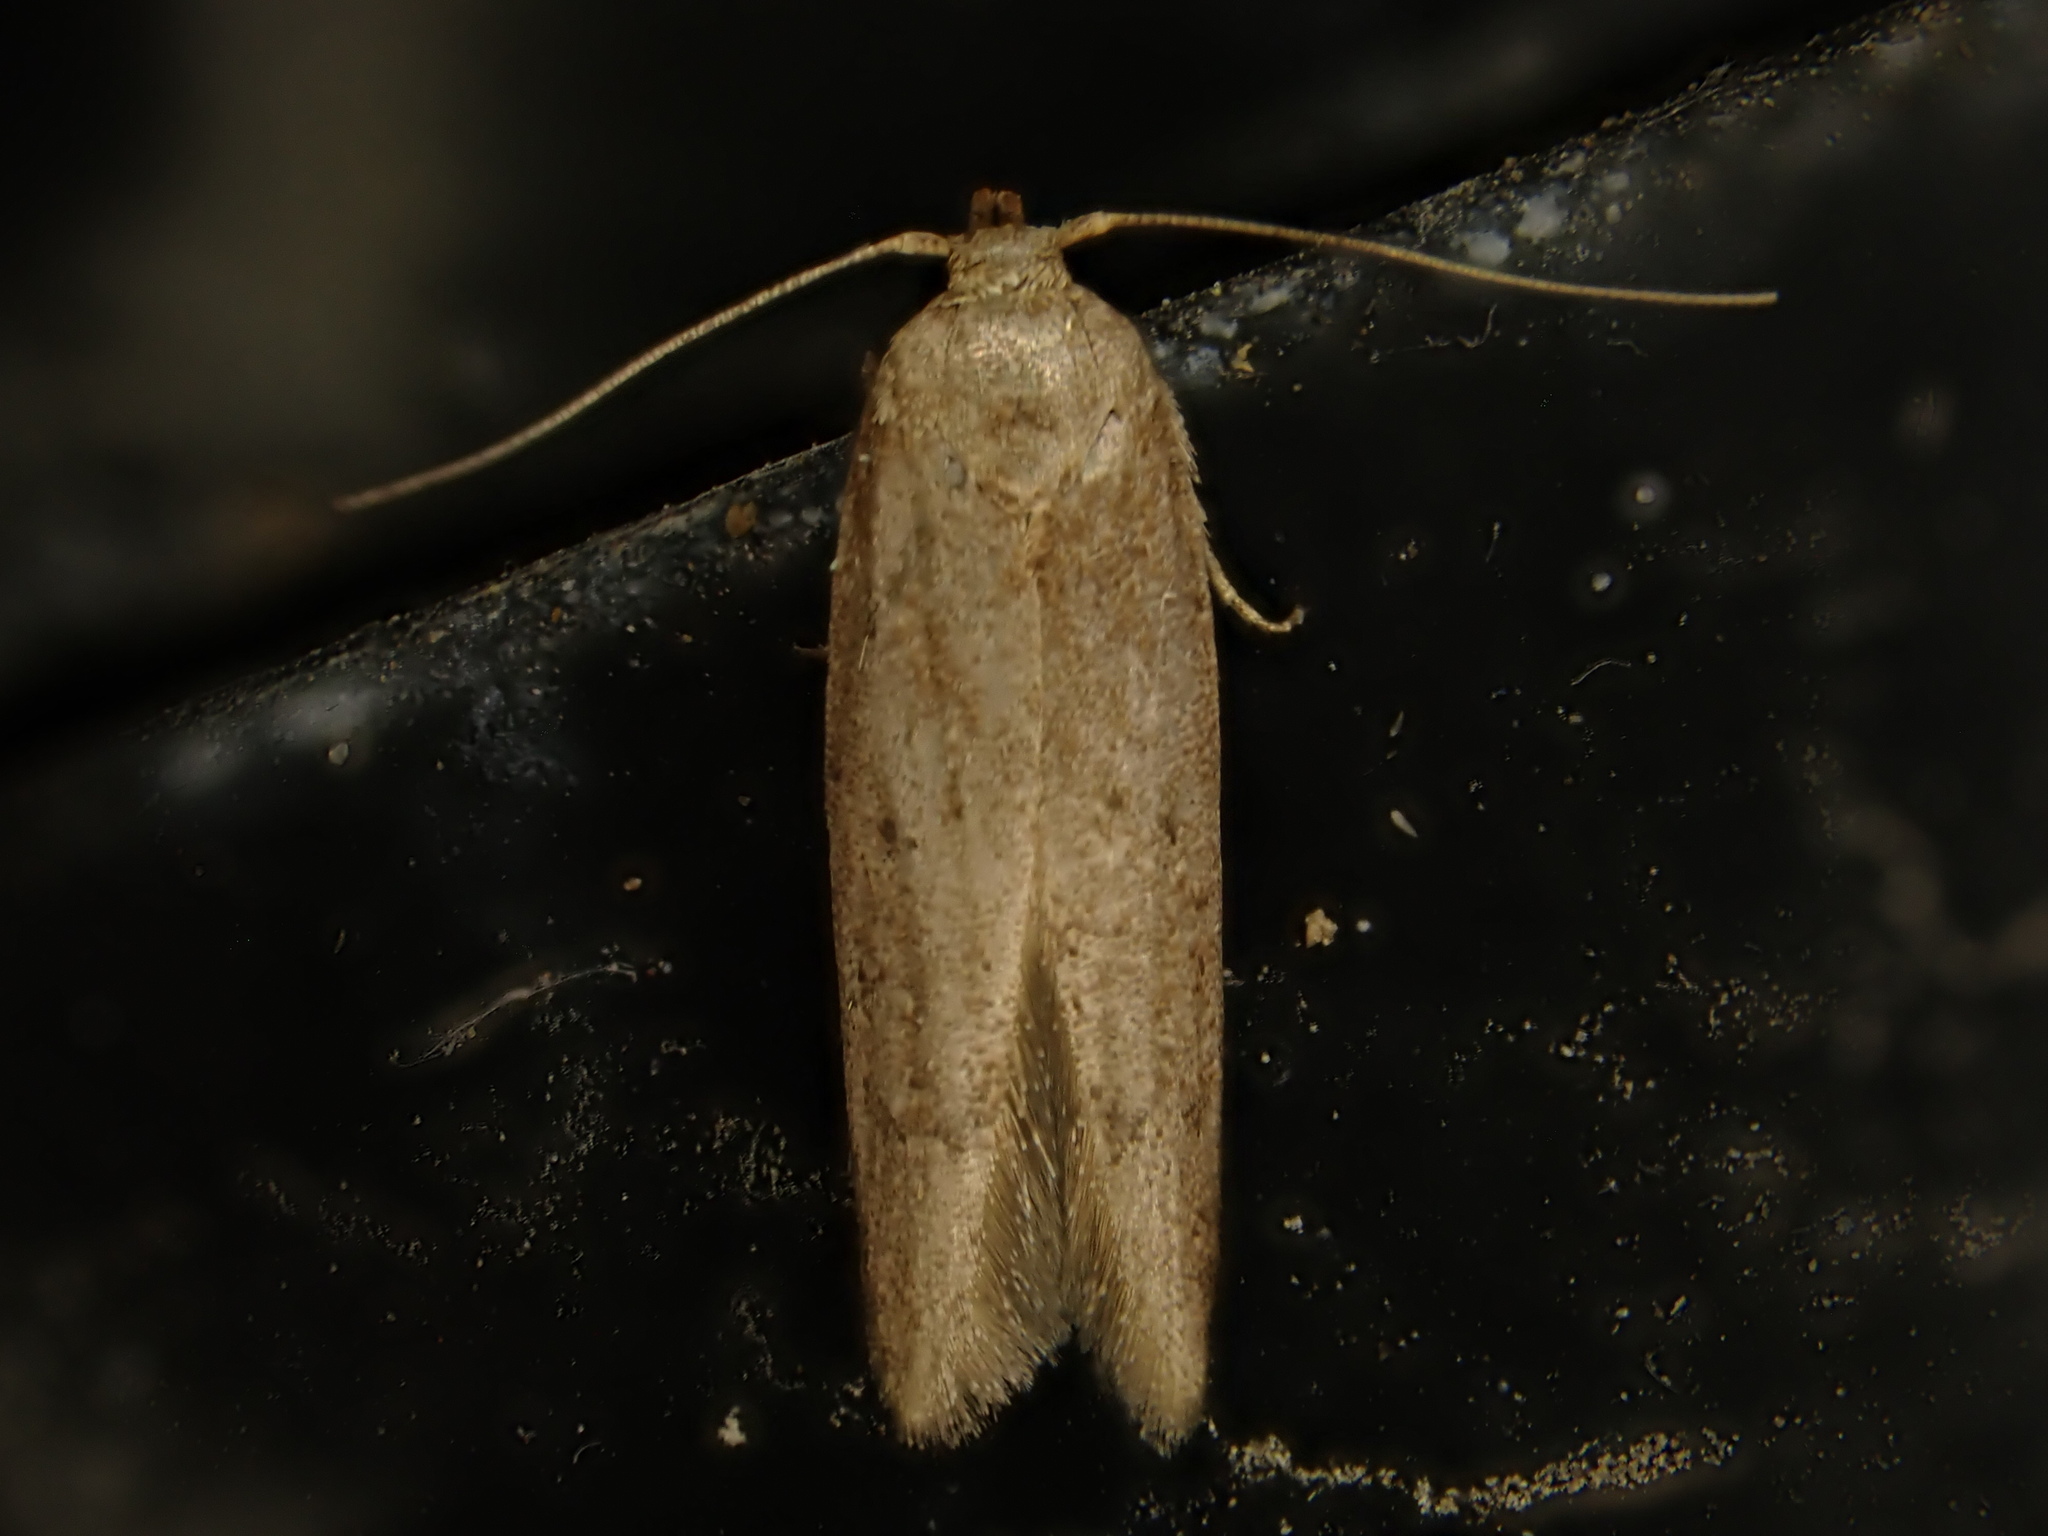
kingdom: Animalia
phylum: Arthropoda
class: Insecta
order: Lepidoptera
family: Blastobasidae
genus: Blastobasis
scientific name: Blastobasis tarda
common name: Blastobasid moth
